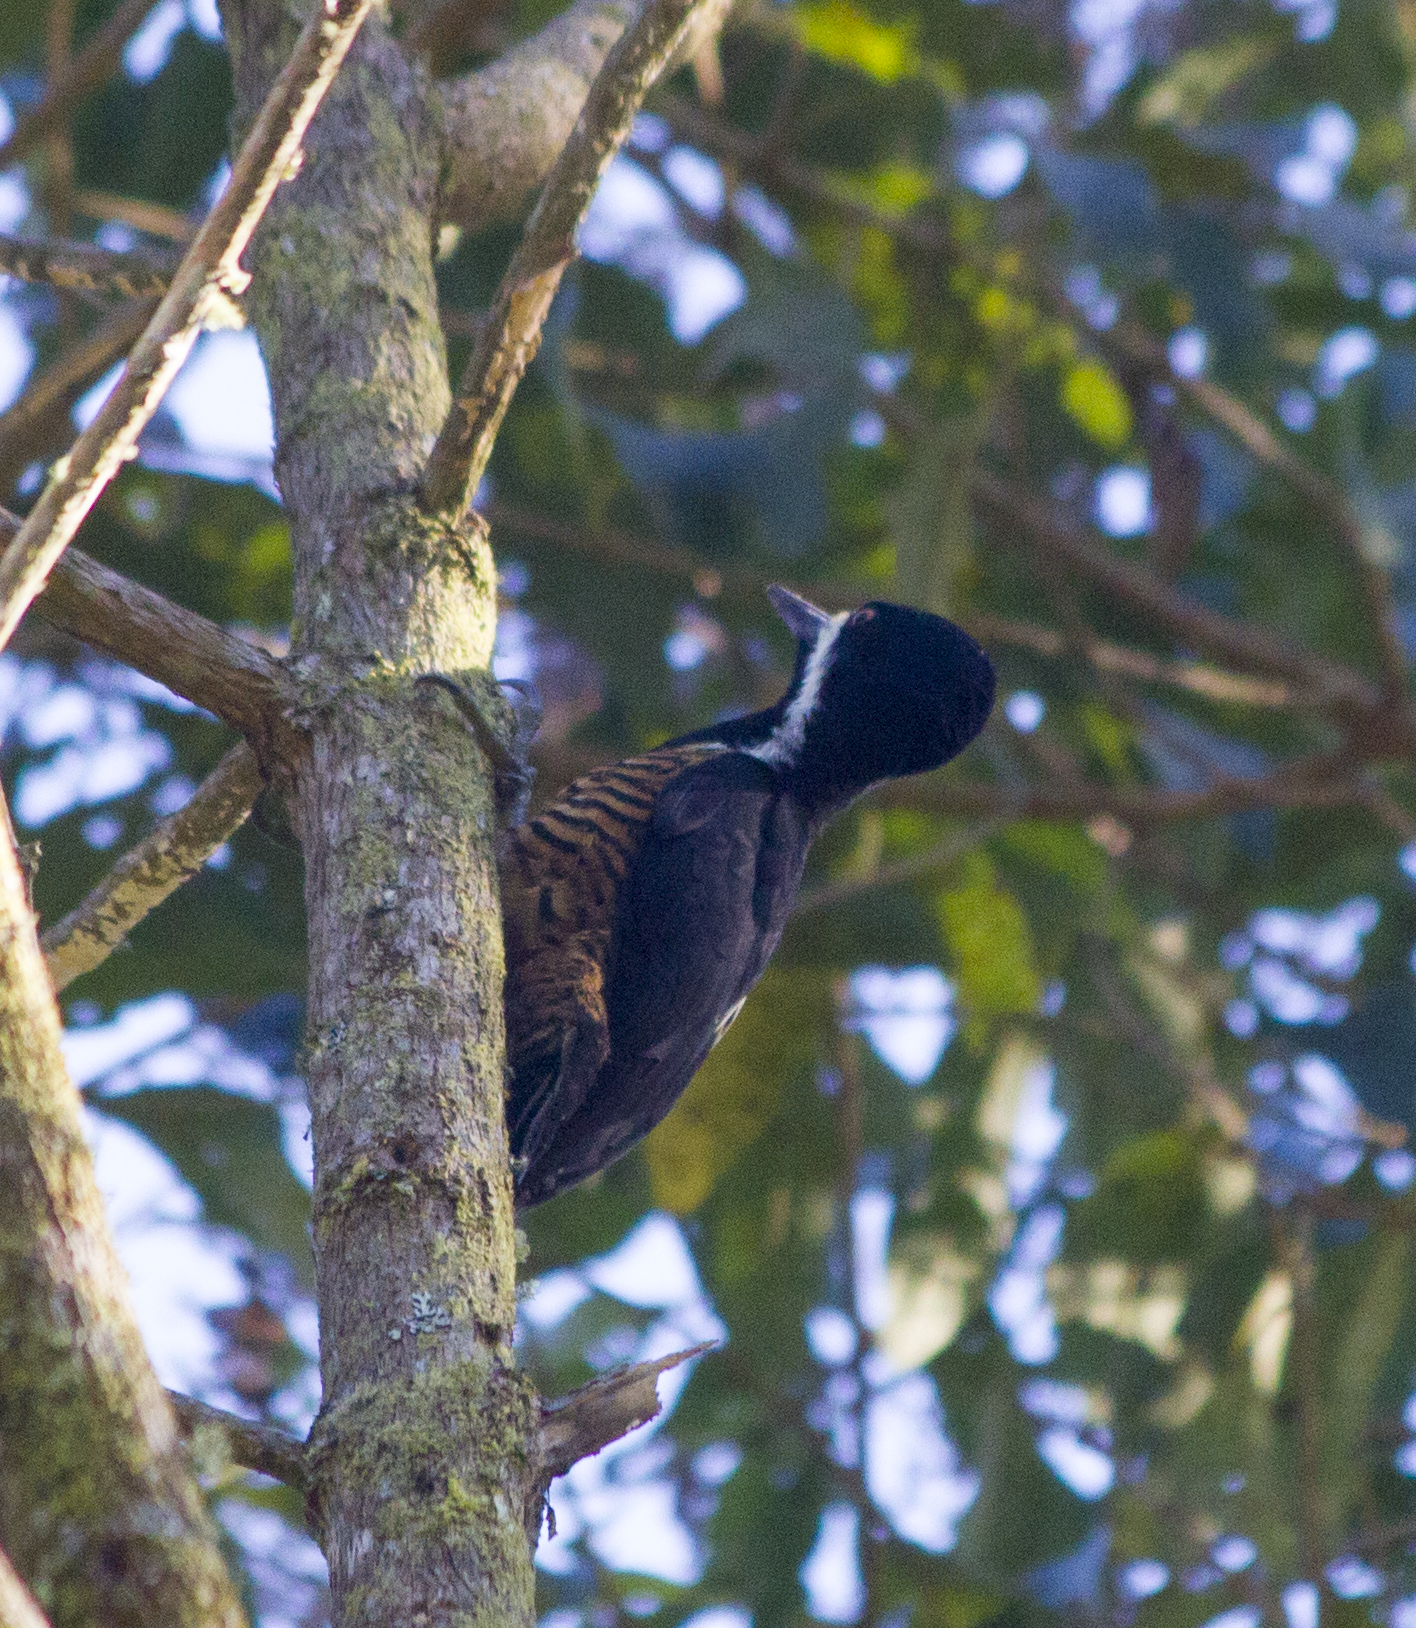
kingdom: Animalia
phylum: Chordata
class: Aves
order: Piciformes
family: Picidae
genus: Campephilus
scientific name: Campephilus pollens
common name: Powerful woodpecker
